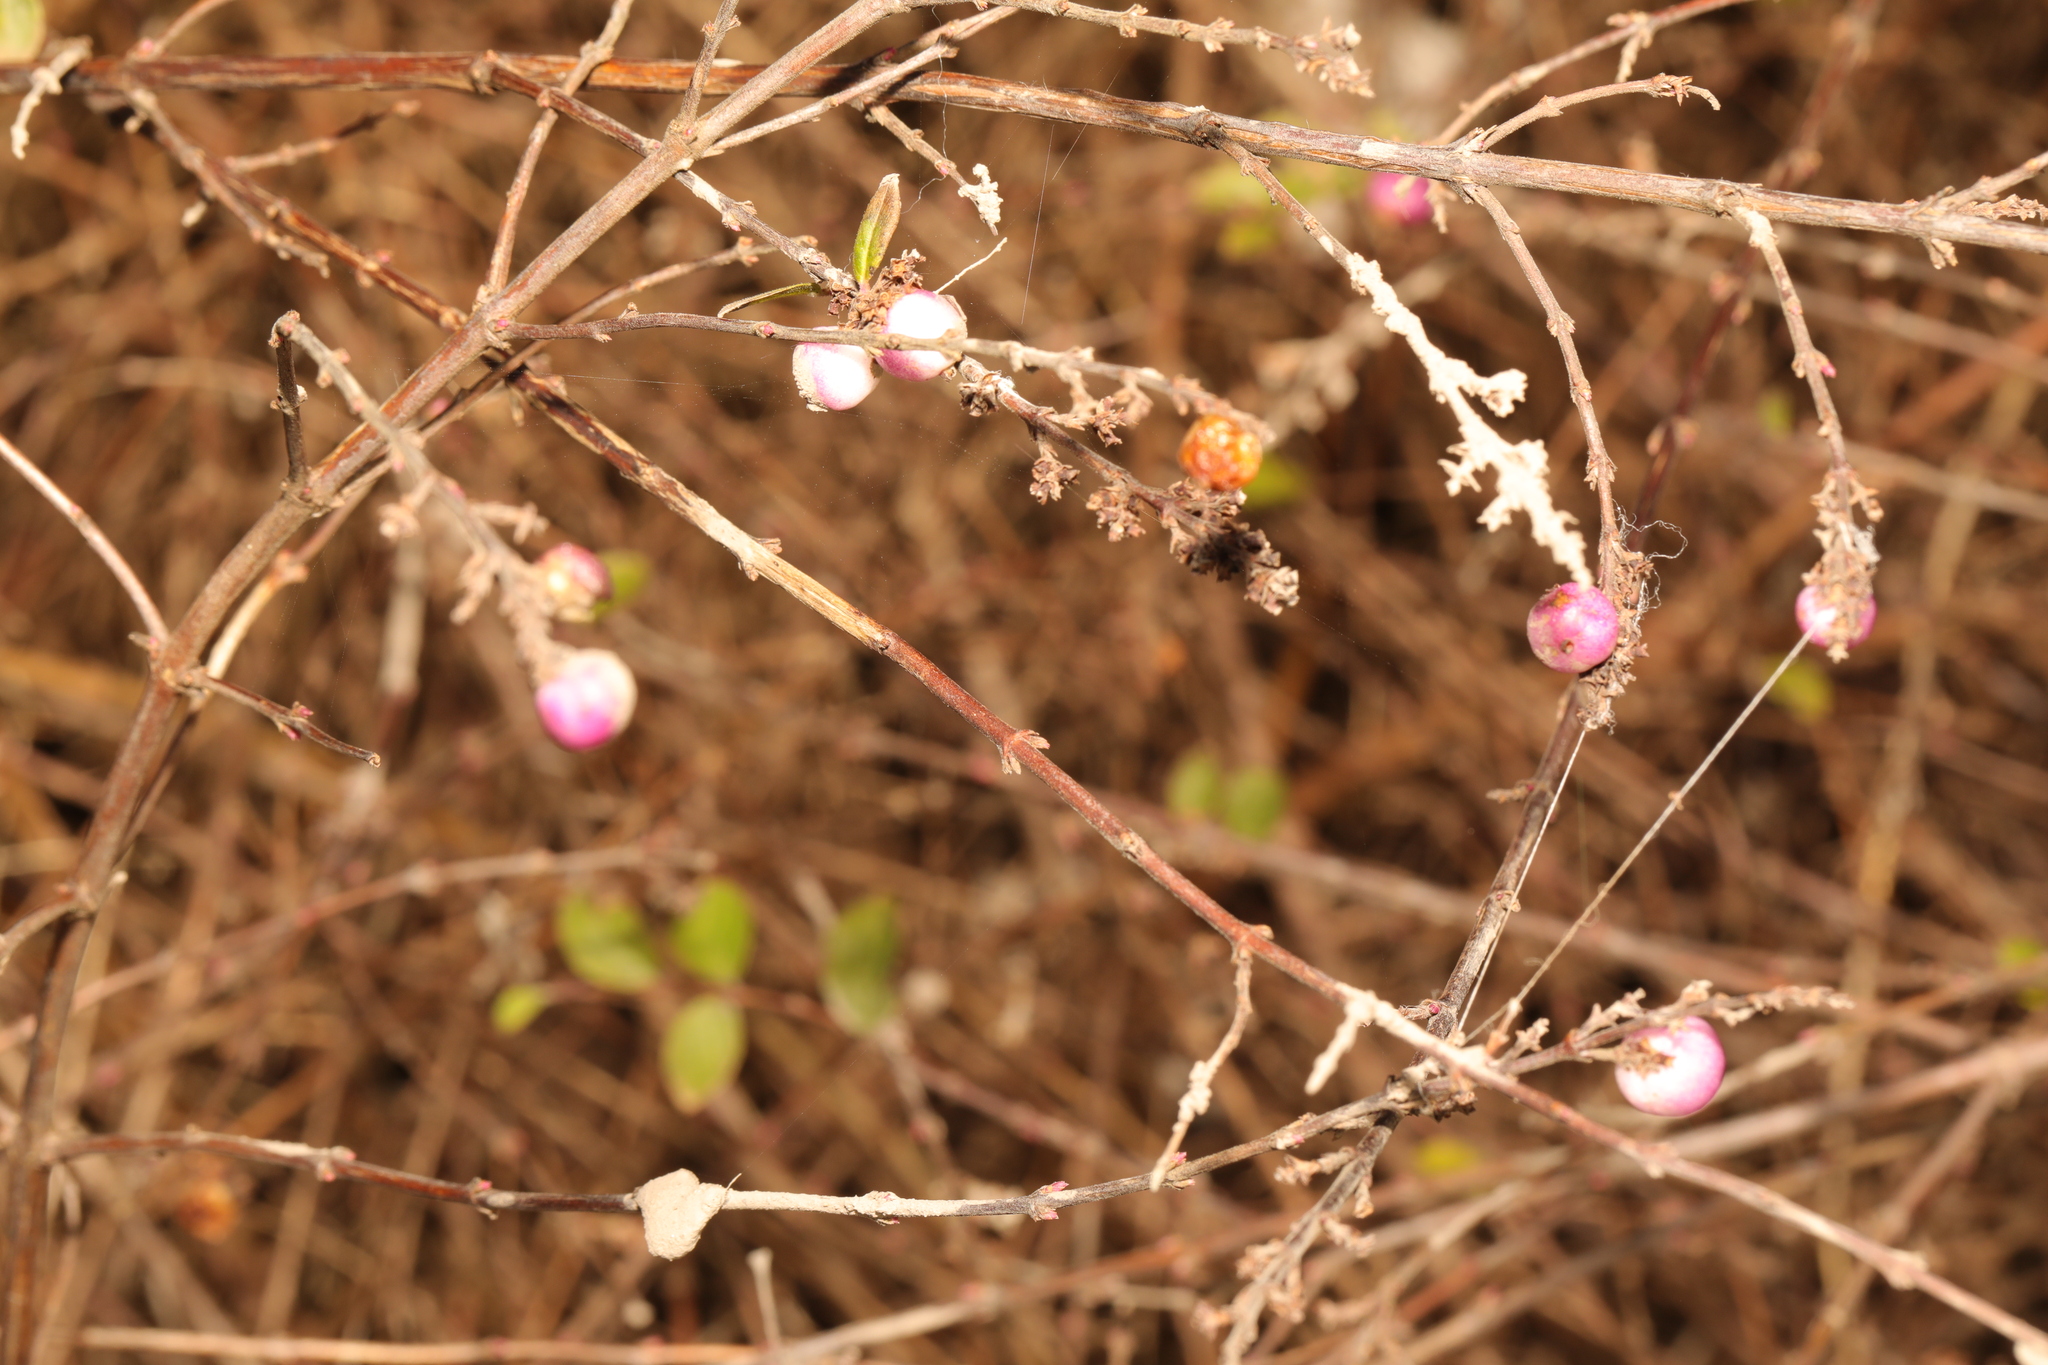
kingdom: Plantae
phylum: Tracheophyta
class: Magnoliopsida
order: Dipsacales
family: Caprifoliaceae
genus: Symphoricarpos
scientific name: Symphoricarpos chenaultii
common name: Hybrid coralberry
